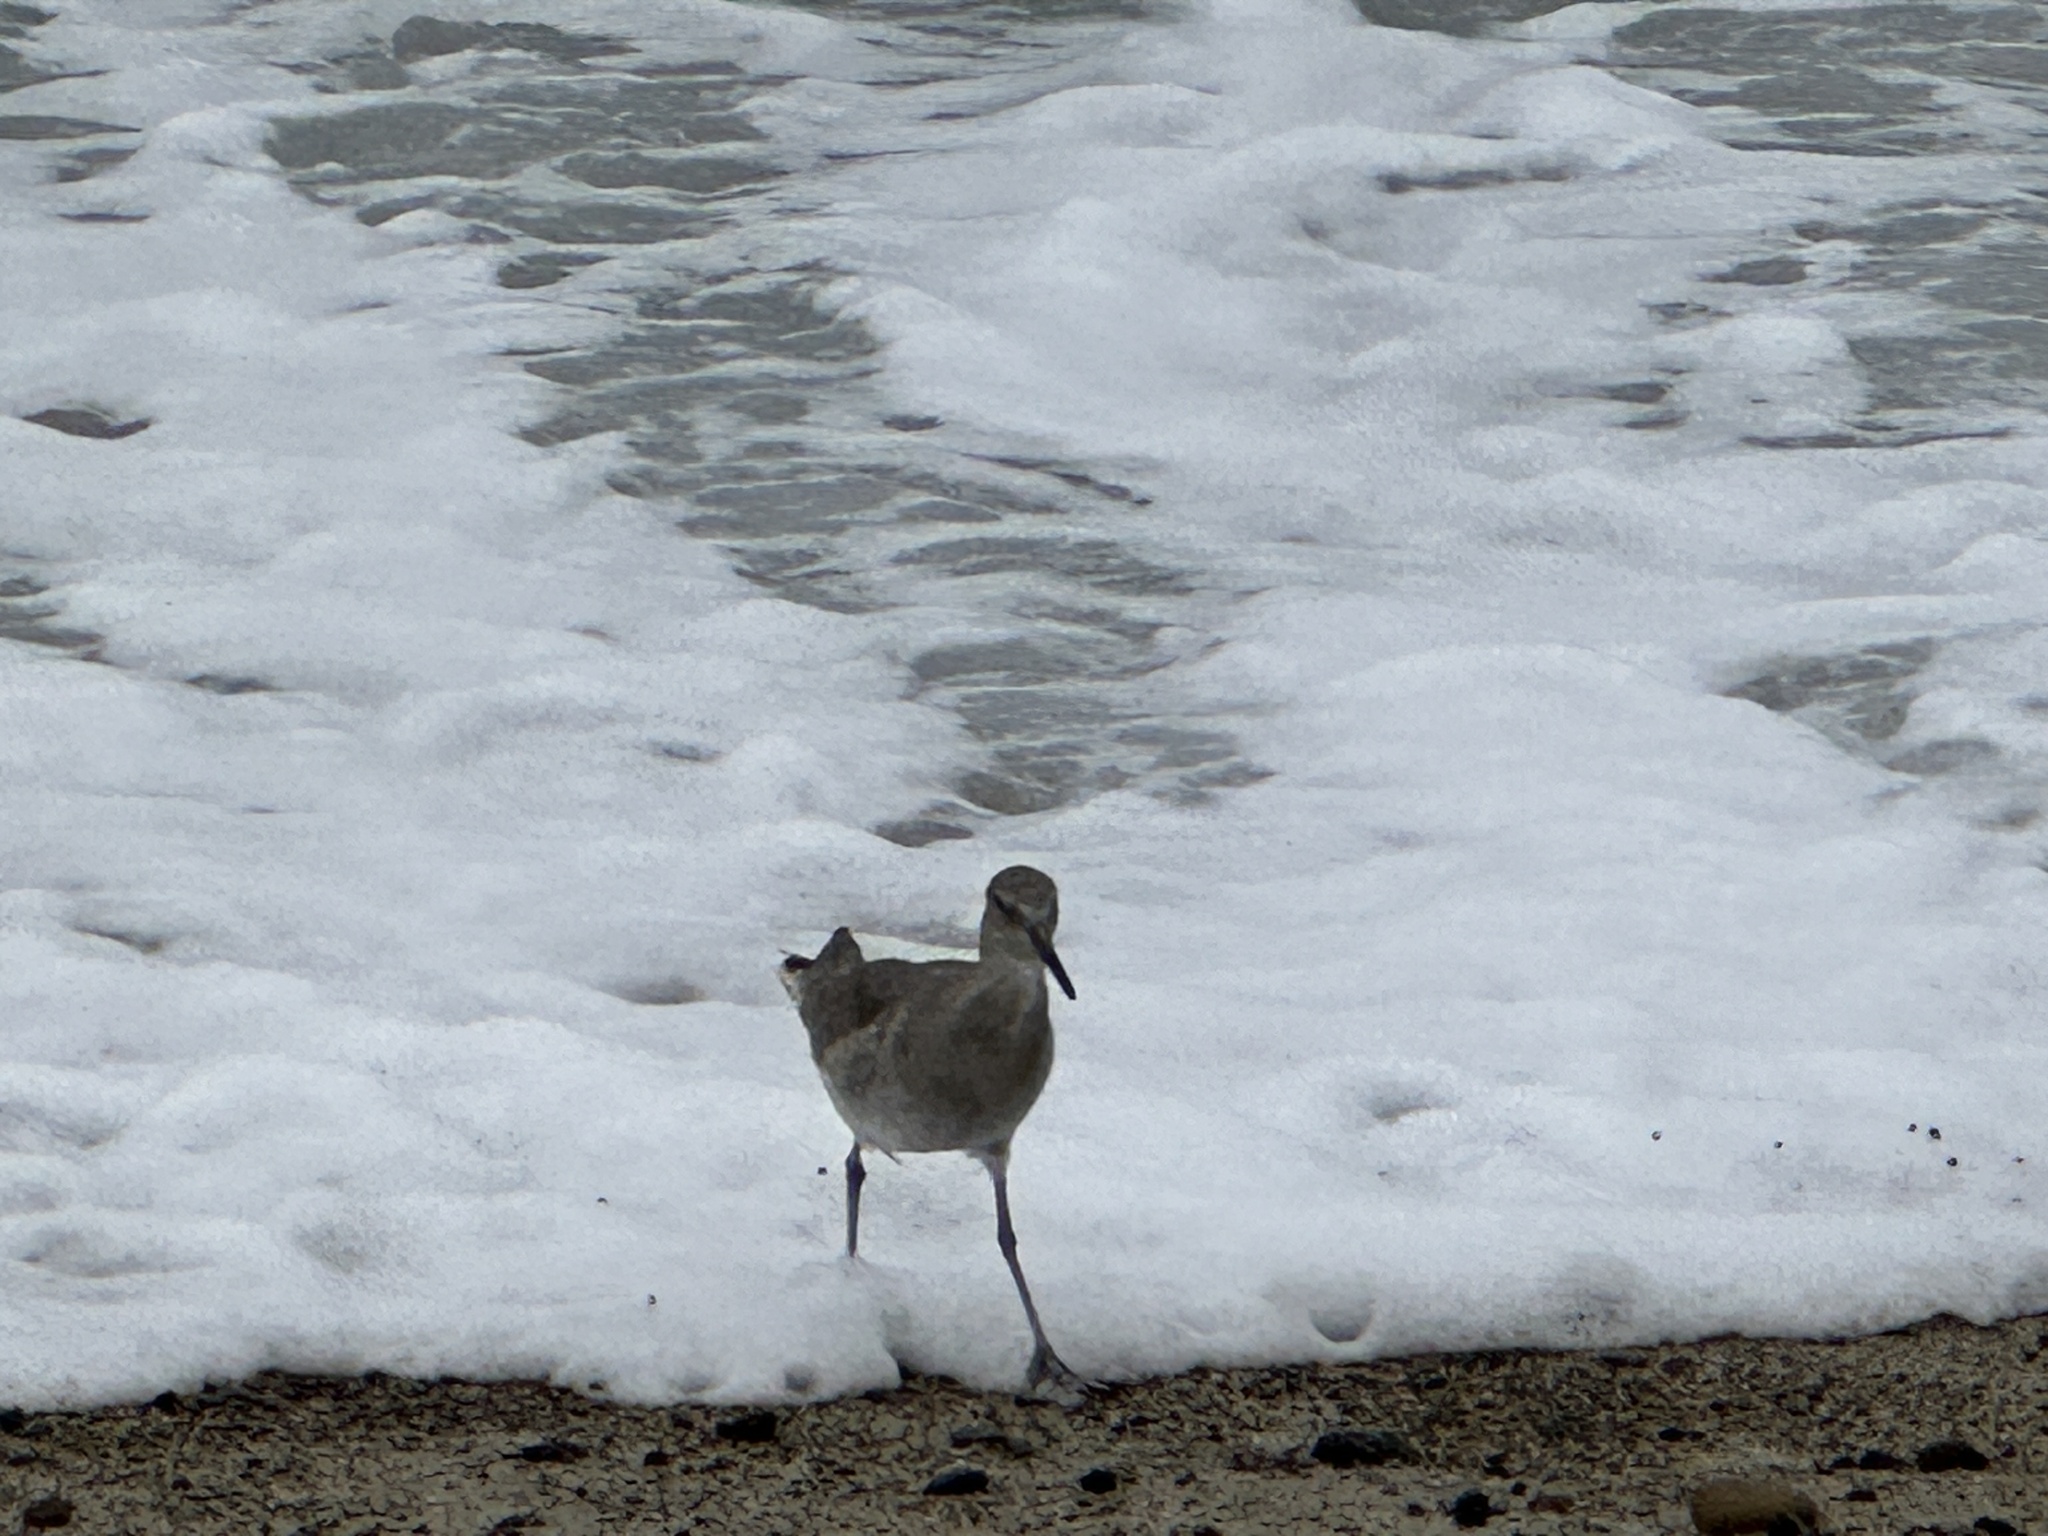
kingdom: Animalia
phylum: Chordata
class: Aves
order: Charadriiformes
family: Scolopacidae
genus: Tringa
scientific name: Tringa semipalmata
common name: Willet
